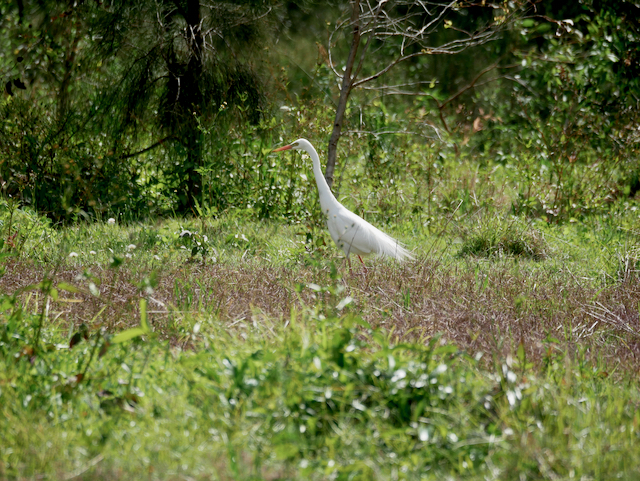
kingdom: Animalia
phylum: Chordata
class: Aves
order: Pelecaniformes
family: Ardeidae
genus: Ardea
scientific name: Ardea alba
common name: Great egret
